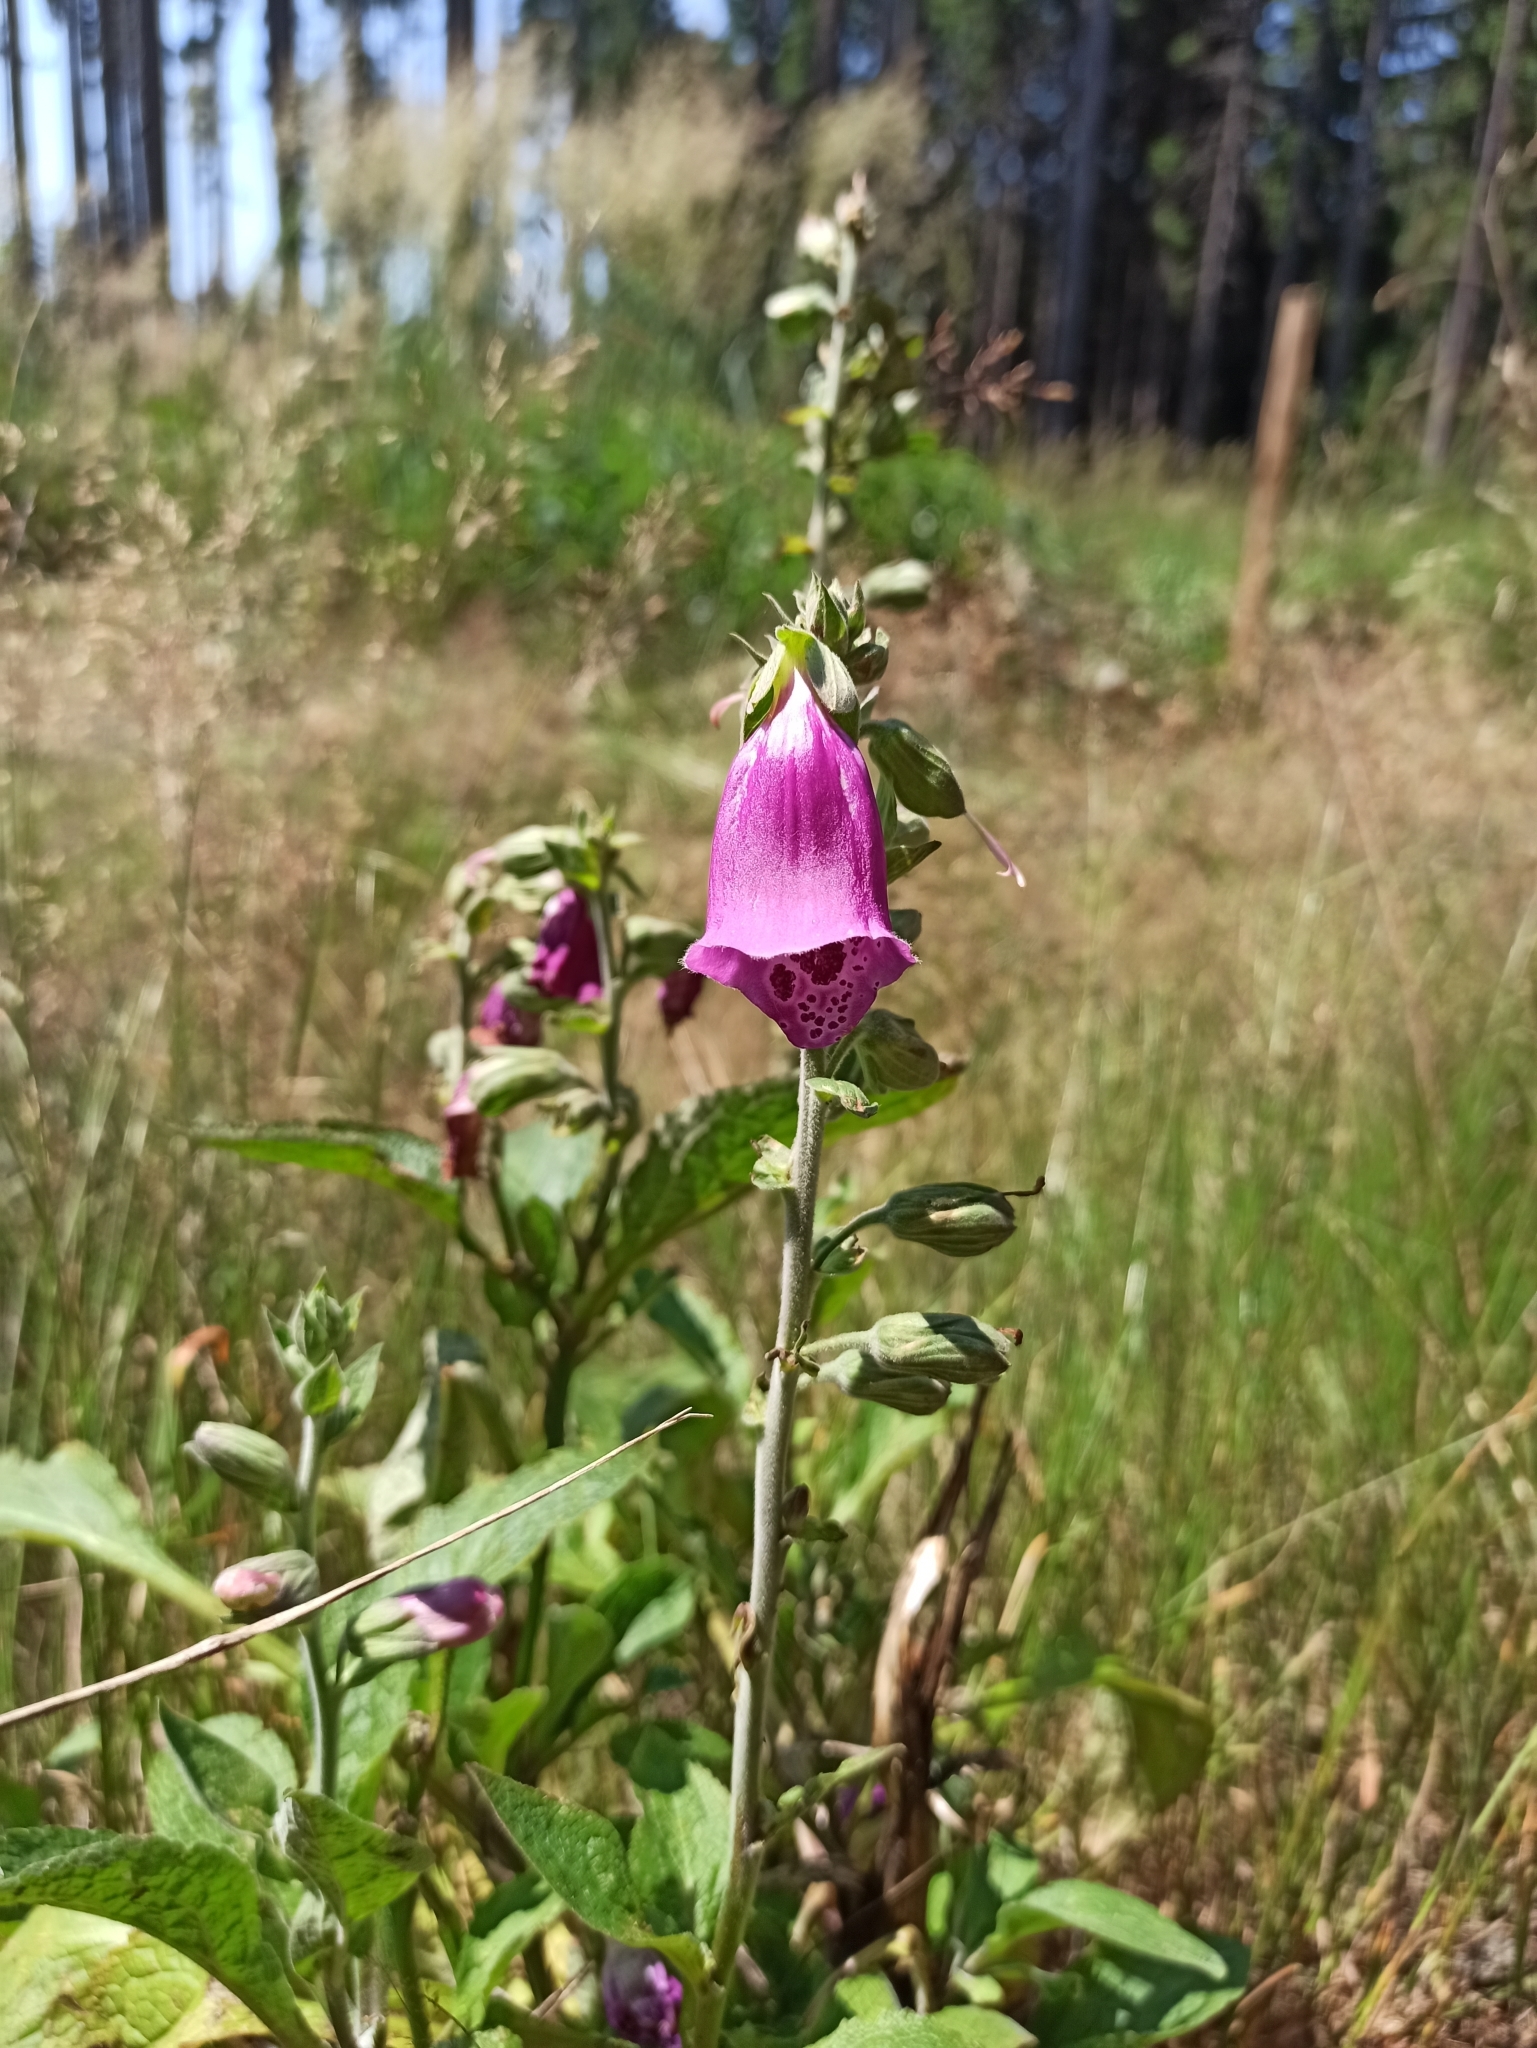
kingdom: Plantae
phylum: Tracheophyta
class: Magnoliopsida
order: Lamiales
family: Plantaginaceae
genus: Digitalis
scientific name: Digitalis purpurea
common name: Foxglove
